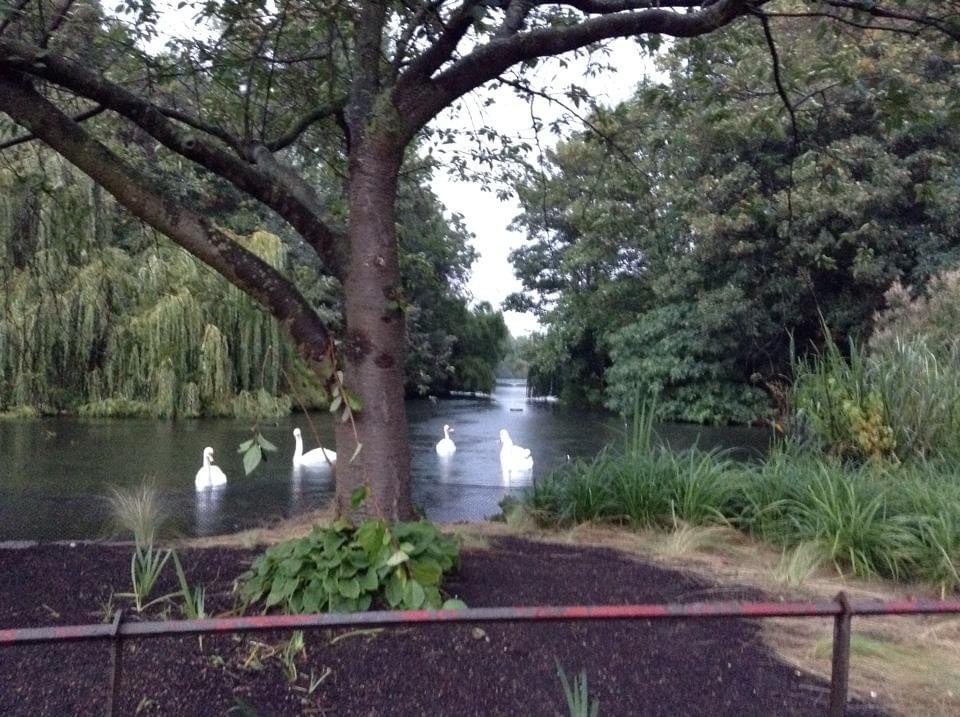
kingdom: Animalia
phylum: Chordata
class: Aves
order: Anseriformes
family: Anatidae
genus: Cygnus
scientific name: Cygnus olor
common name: Mute swan
